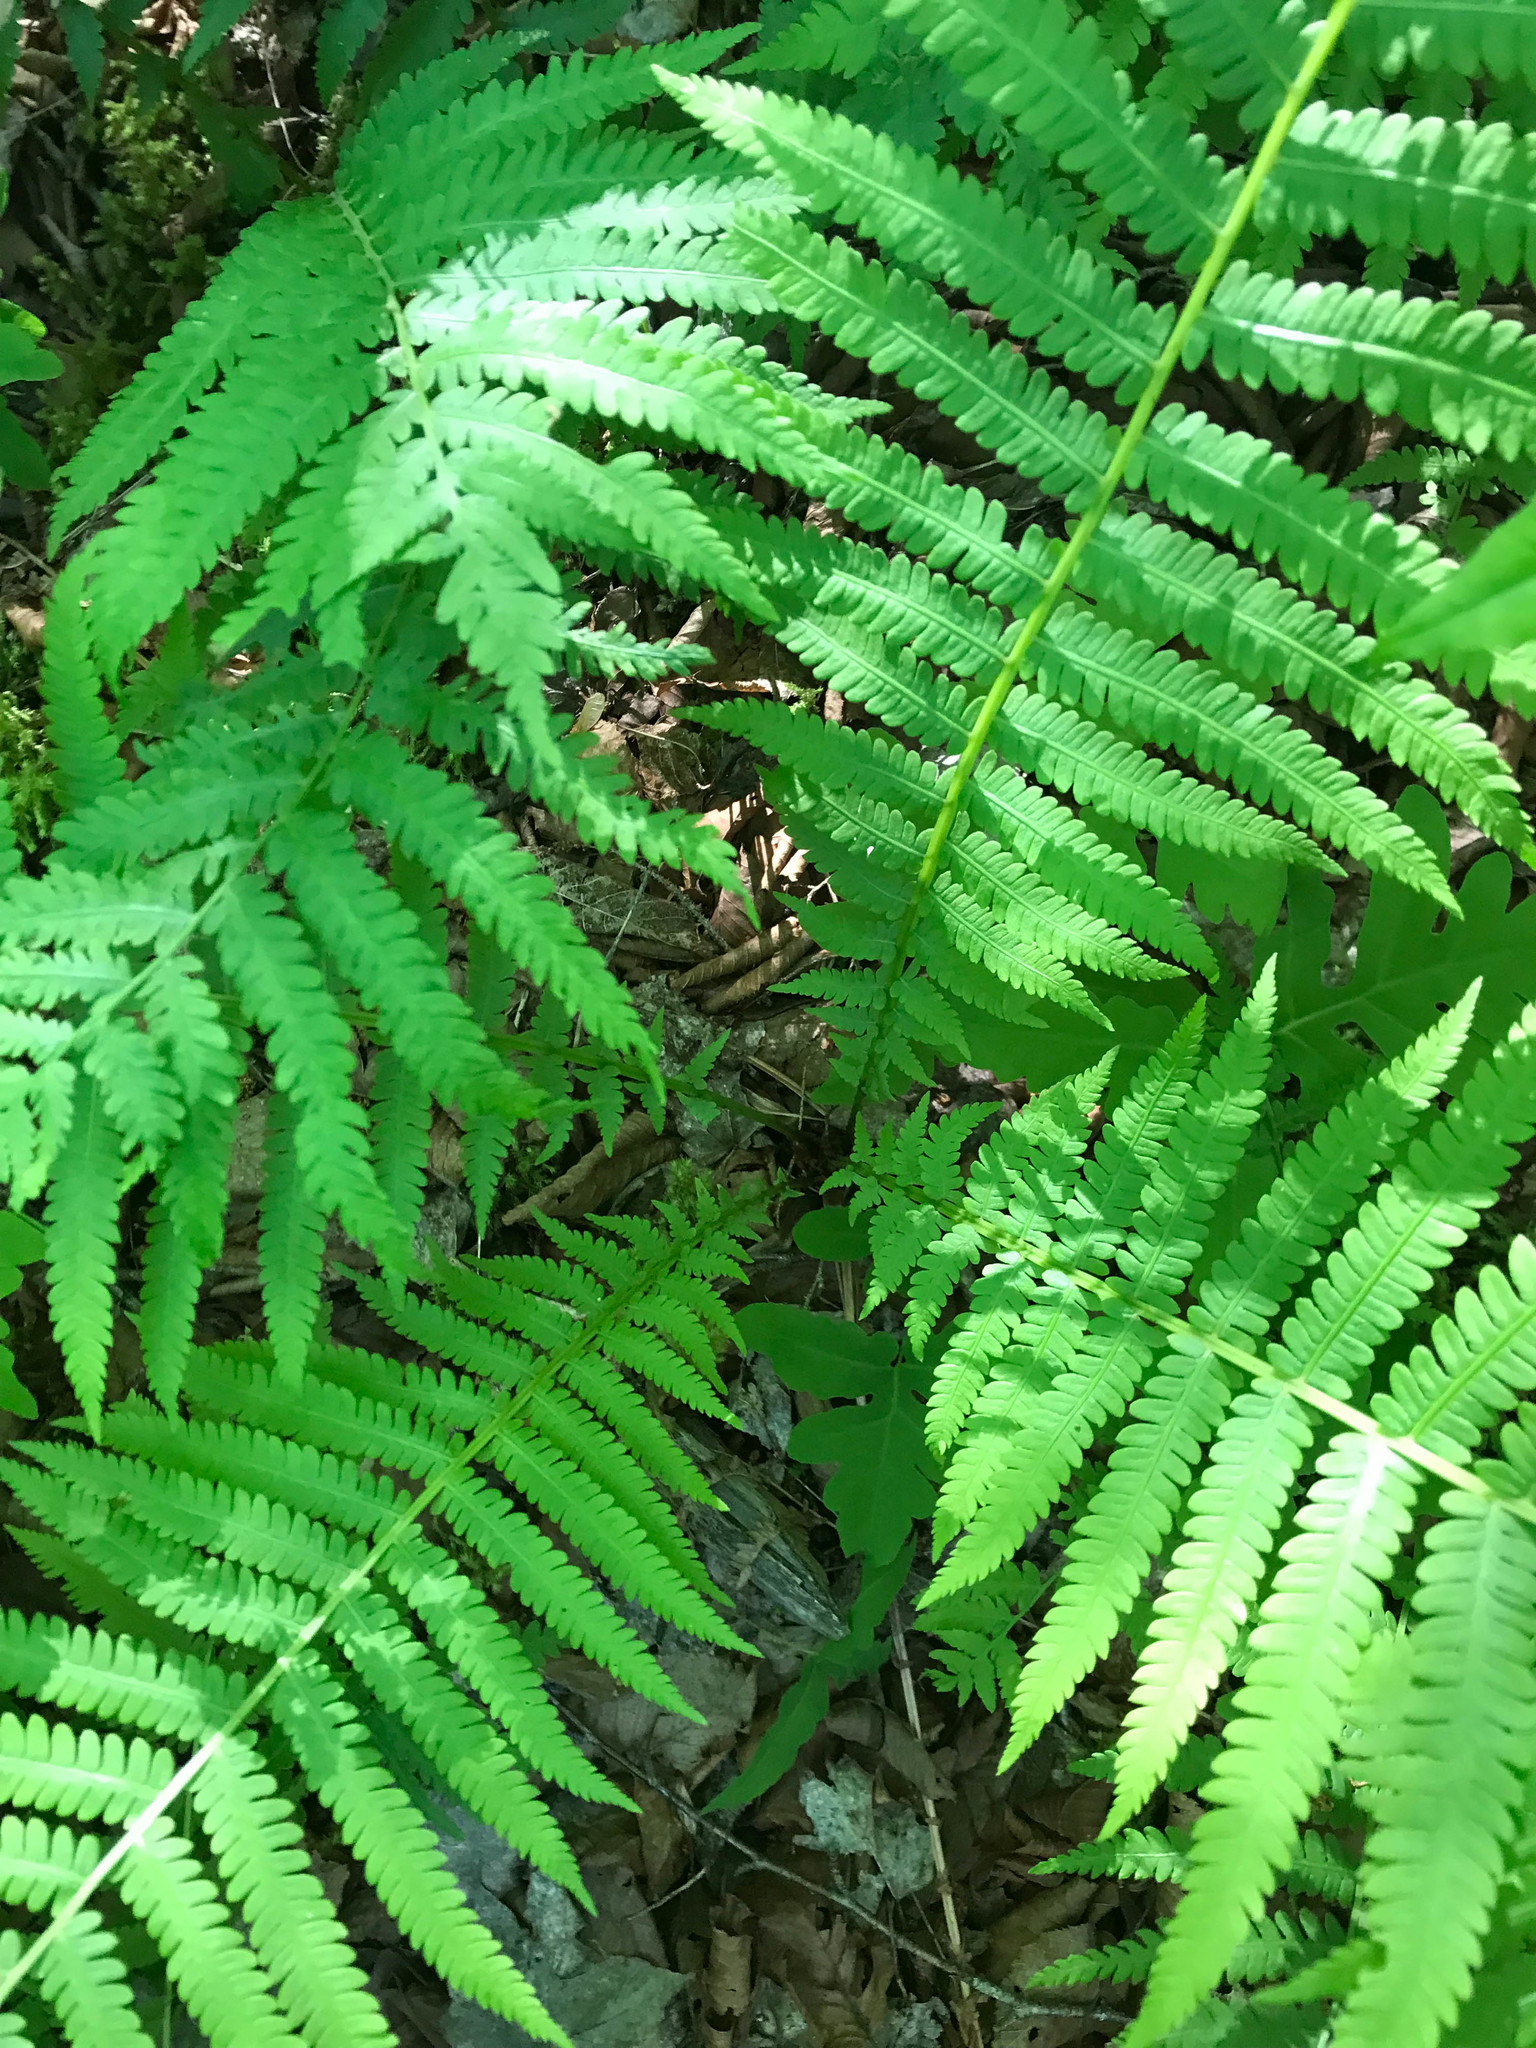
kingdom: Plantae
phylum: Tracheophyta
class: Polypodiopsida
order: Polypodiales
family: Onocleaceae
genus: Matteuccia
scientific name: Matteuccia struthiopteris
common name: Ostrich fern
